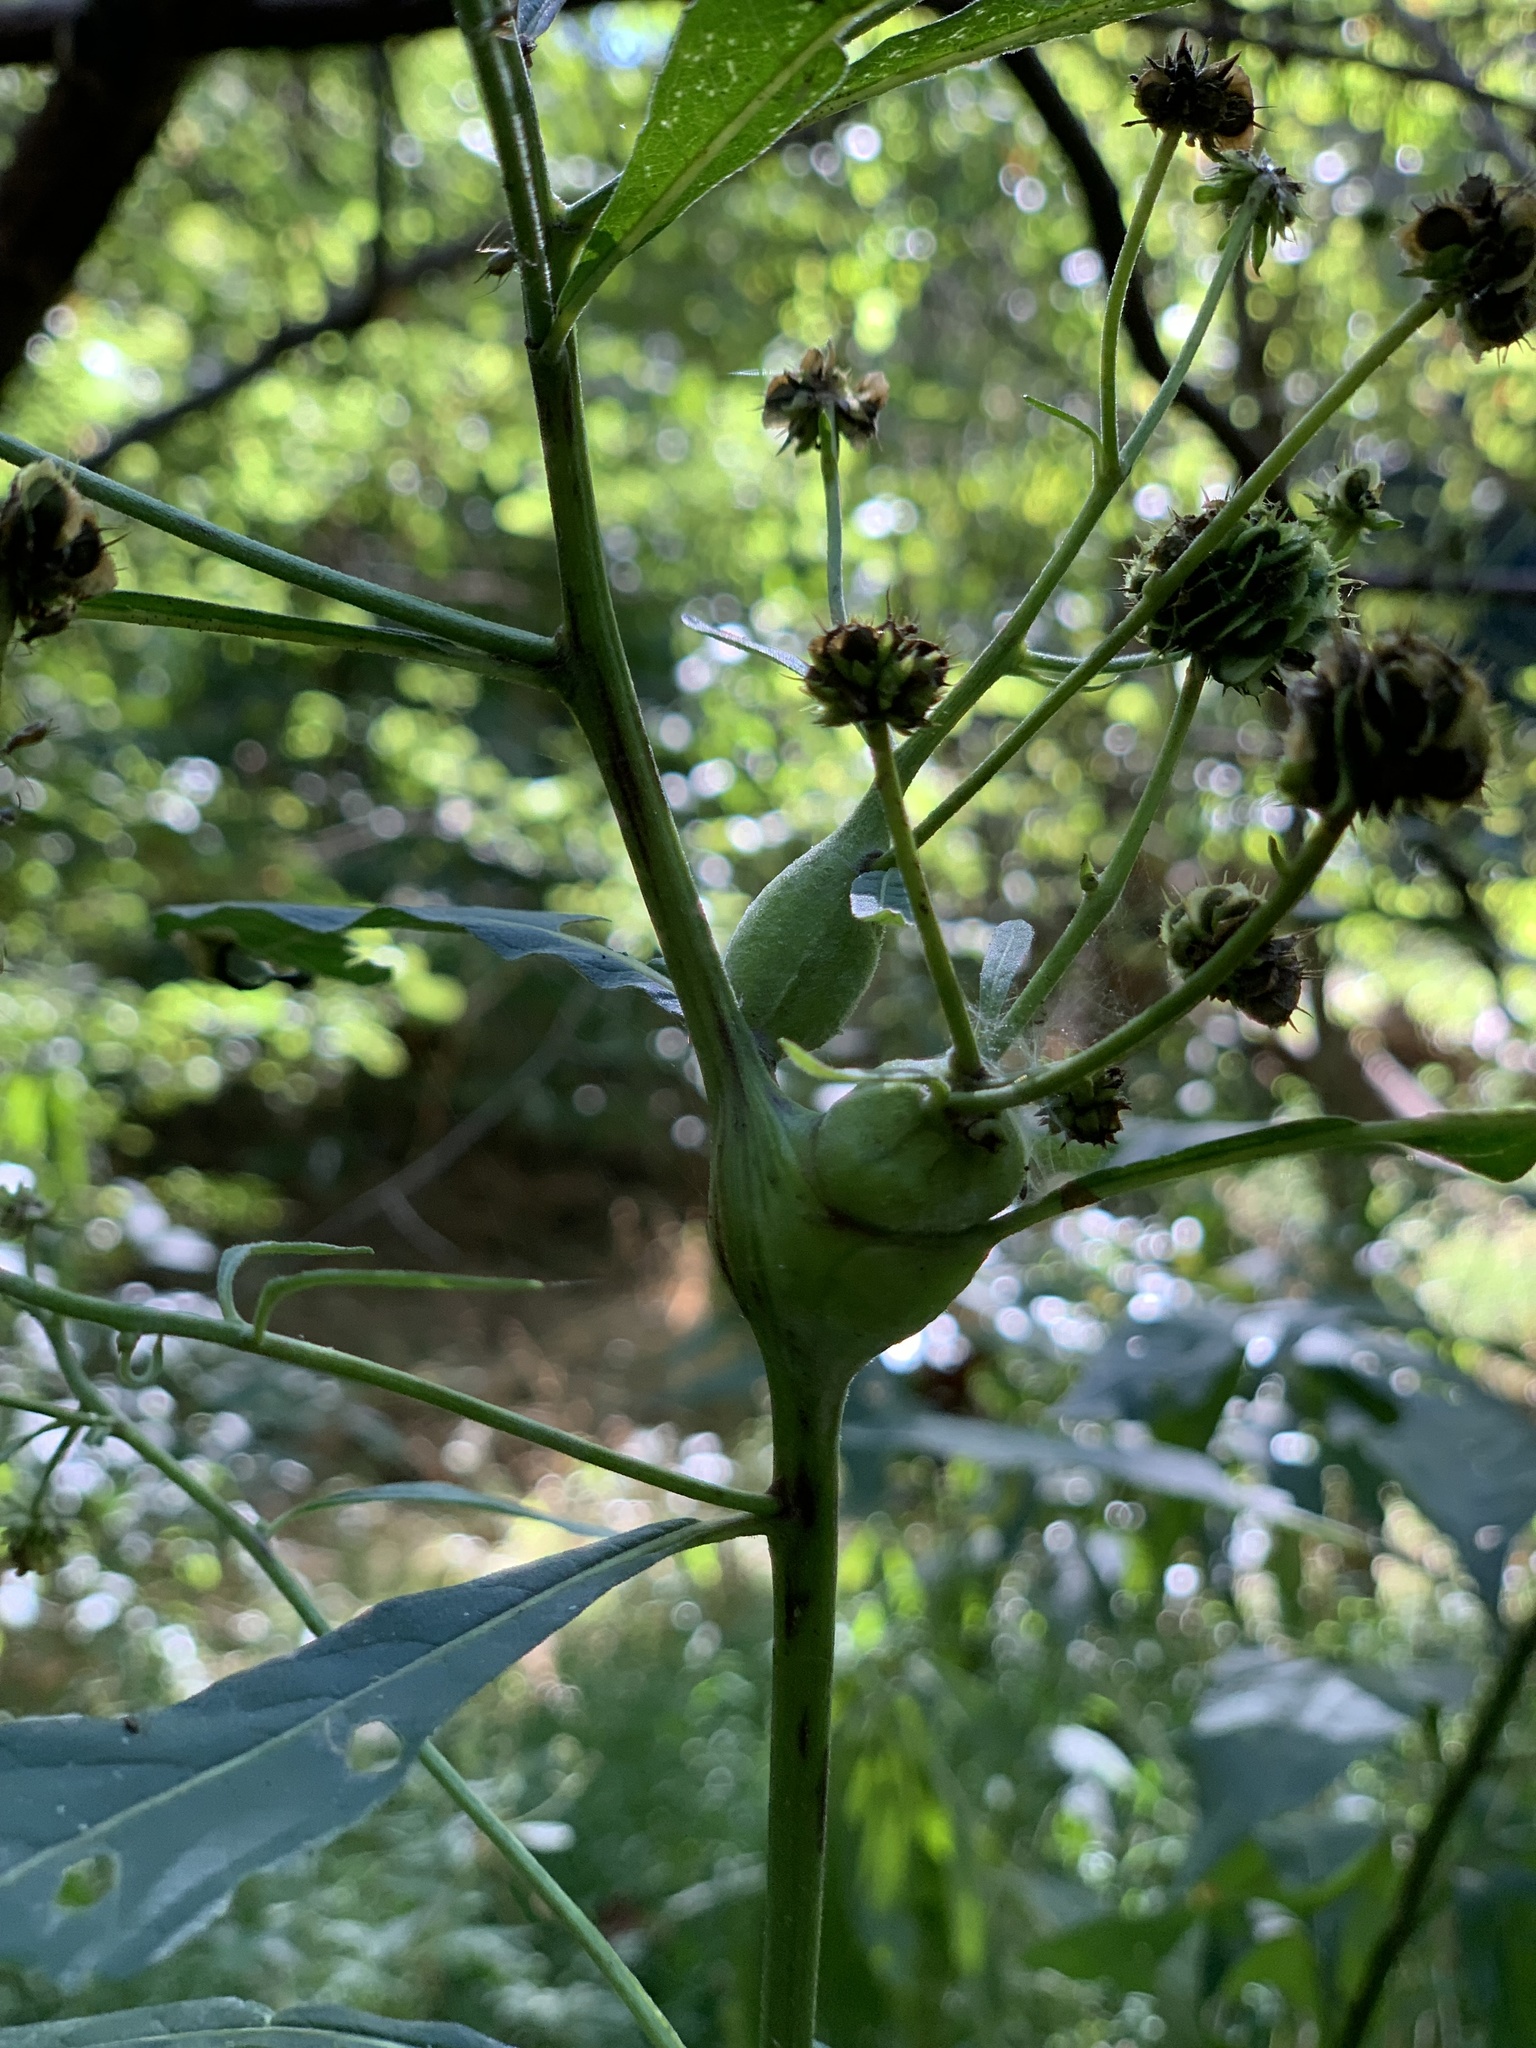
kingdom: Animalia
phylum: Arthropoda
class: Insecta
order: Diptera
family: Cecidomyiidae
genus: Neolasioptera
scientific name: Neolasioptera verbesinae
